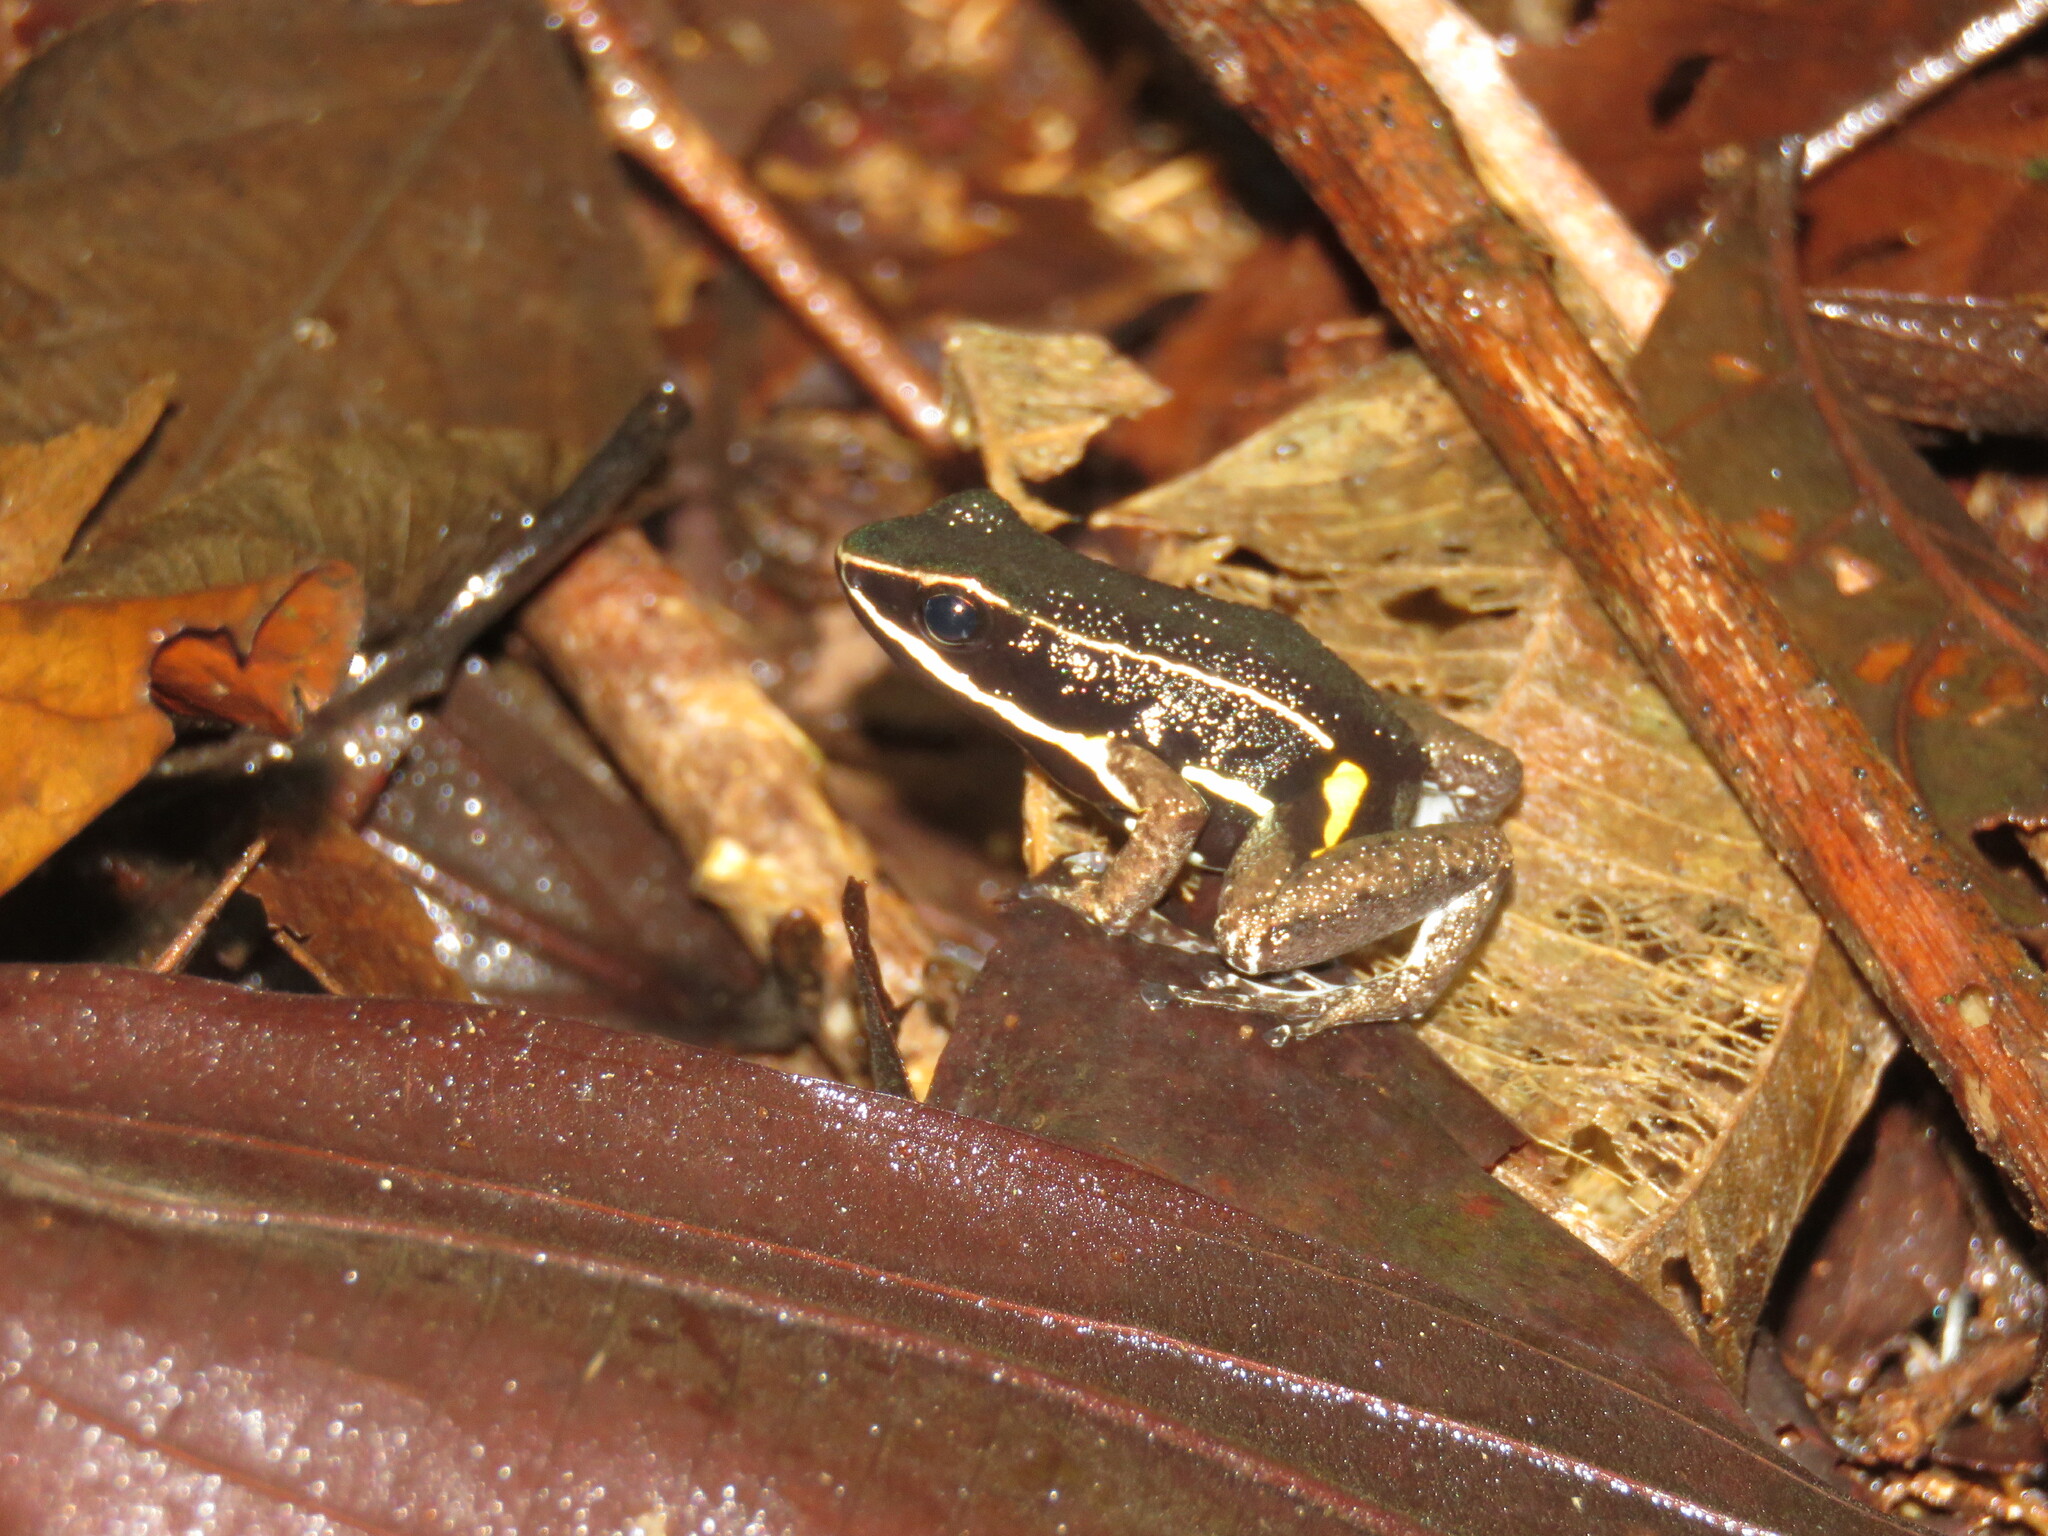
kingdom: Animalia
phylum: Chordata
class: Amphibia
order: Anura
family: Aromobatidae
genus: Allobates
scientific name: Allobates femoralis
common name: Brilliant-thighed poison frog
